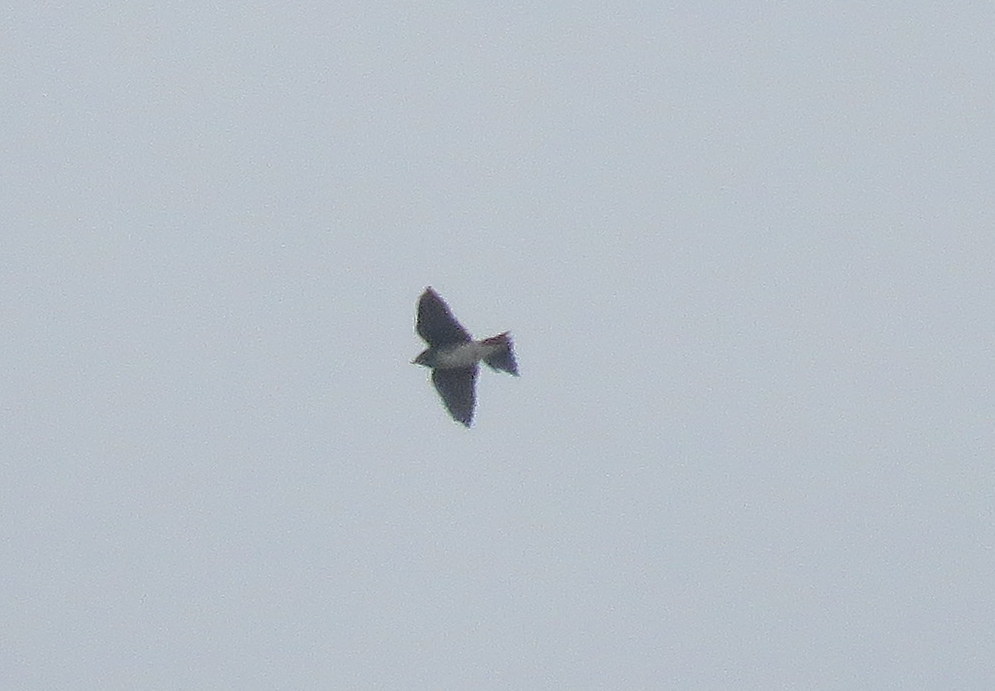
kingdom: Animalia
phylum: Chordata
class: Aves
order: Passeriformes
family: Hirundinidae
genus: Progne
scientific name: Progne chalybea
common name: Grey-breasted martin
